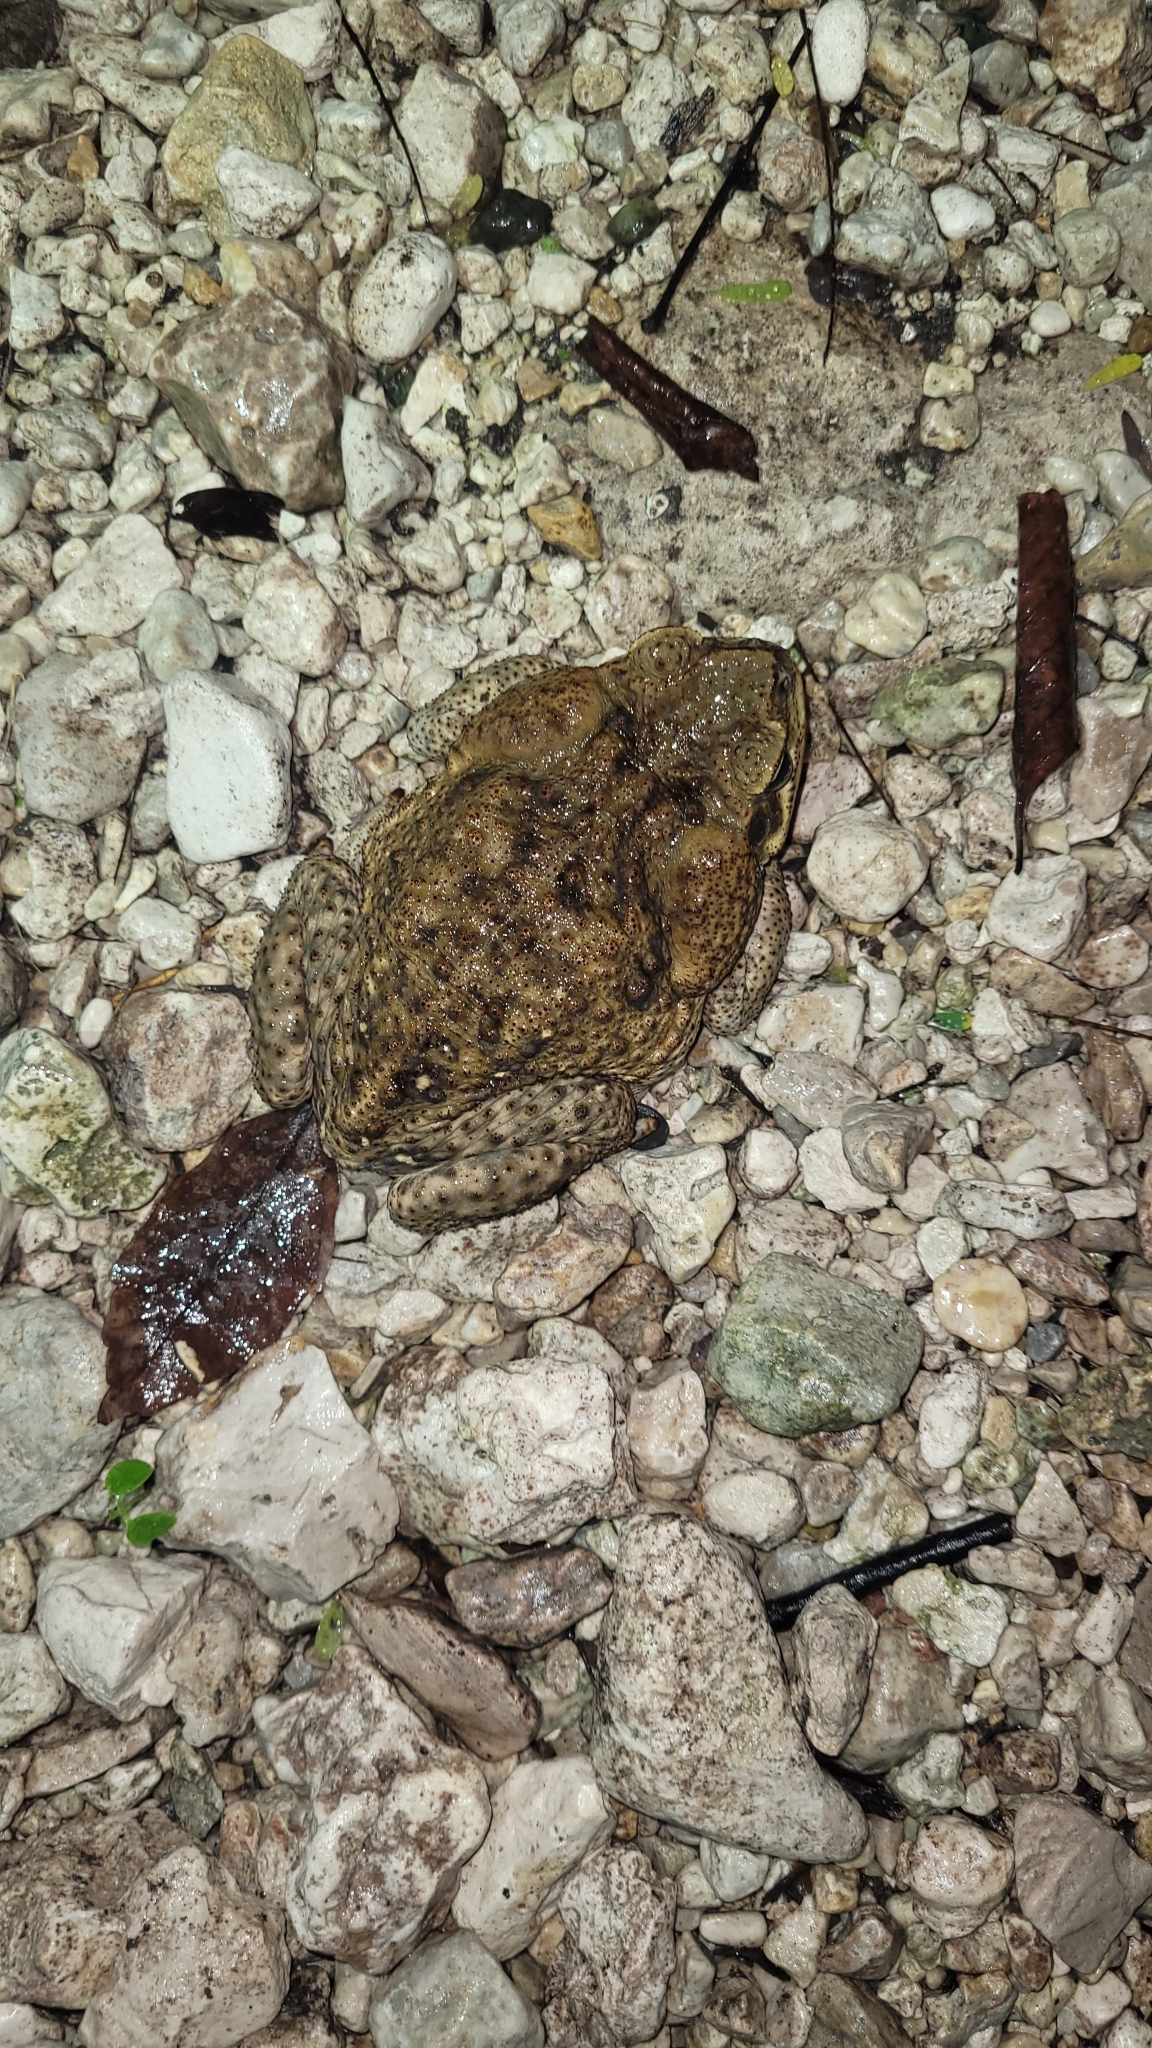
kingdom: Animalia
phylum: Chordata
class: Amphibia
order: Anura
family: Bufonidae
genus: Rhinella
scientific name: Rhinella horribilis
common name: Mesoamerican cane toad
